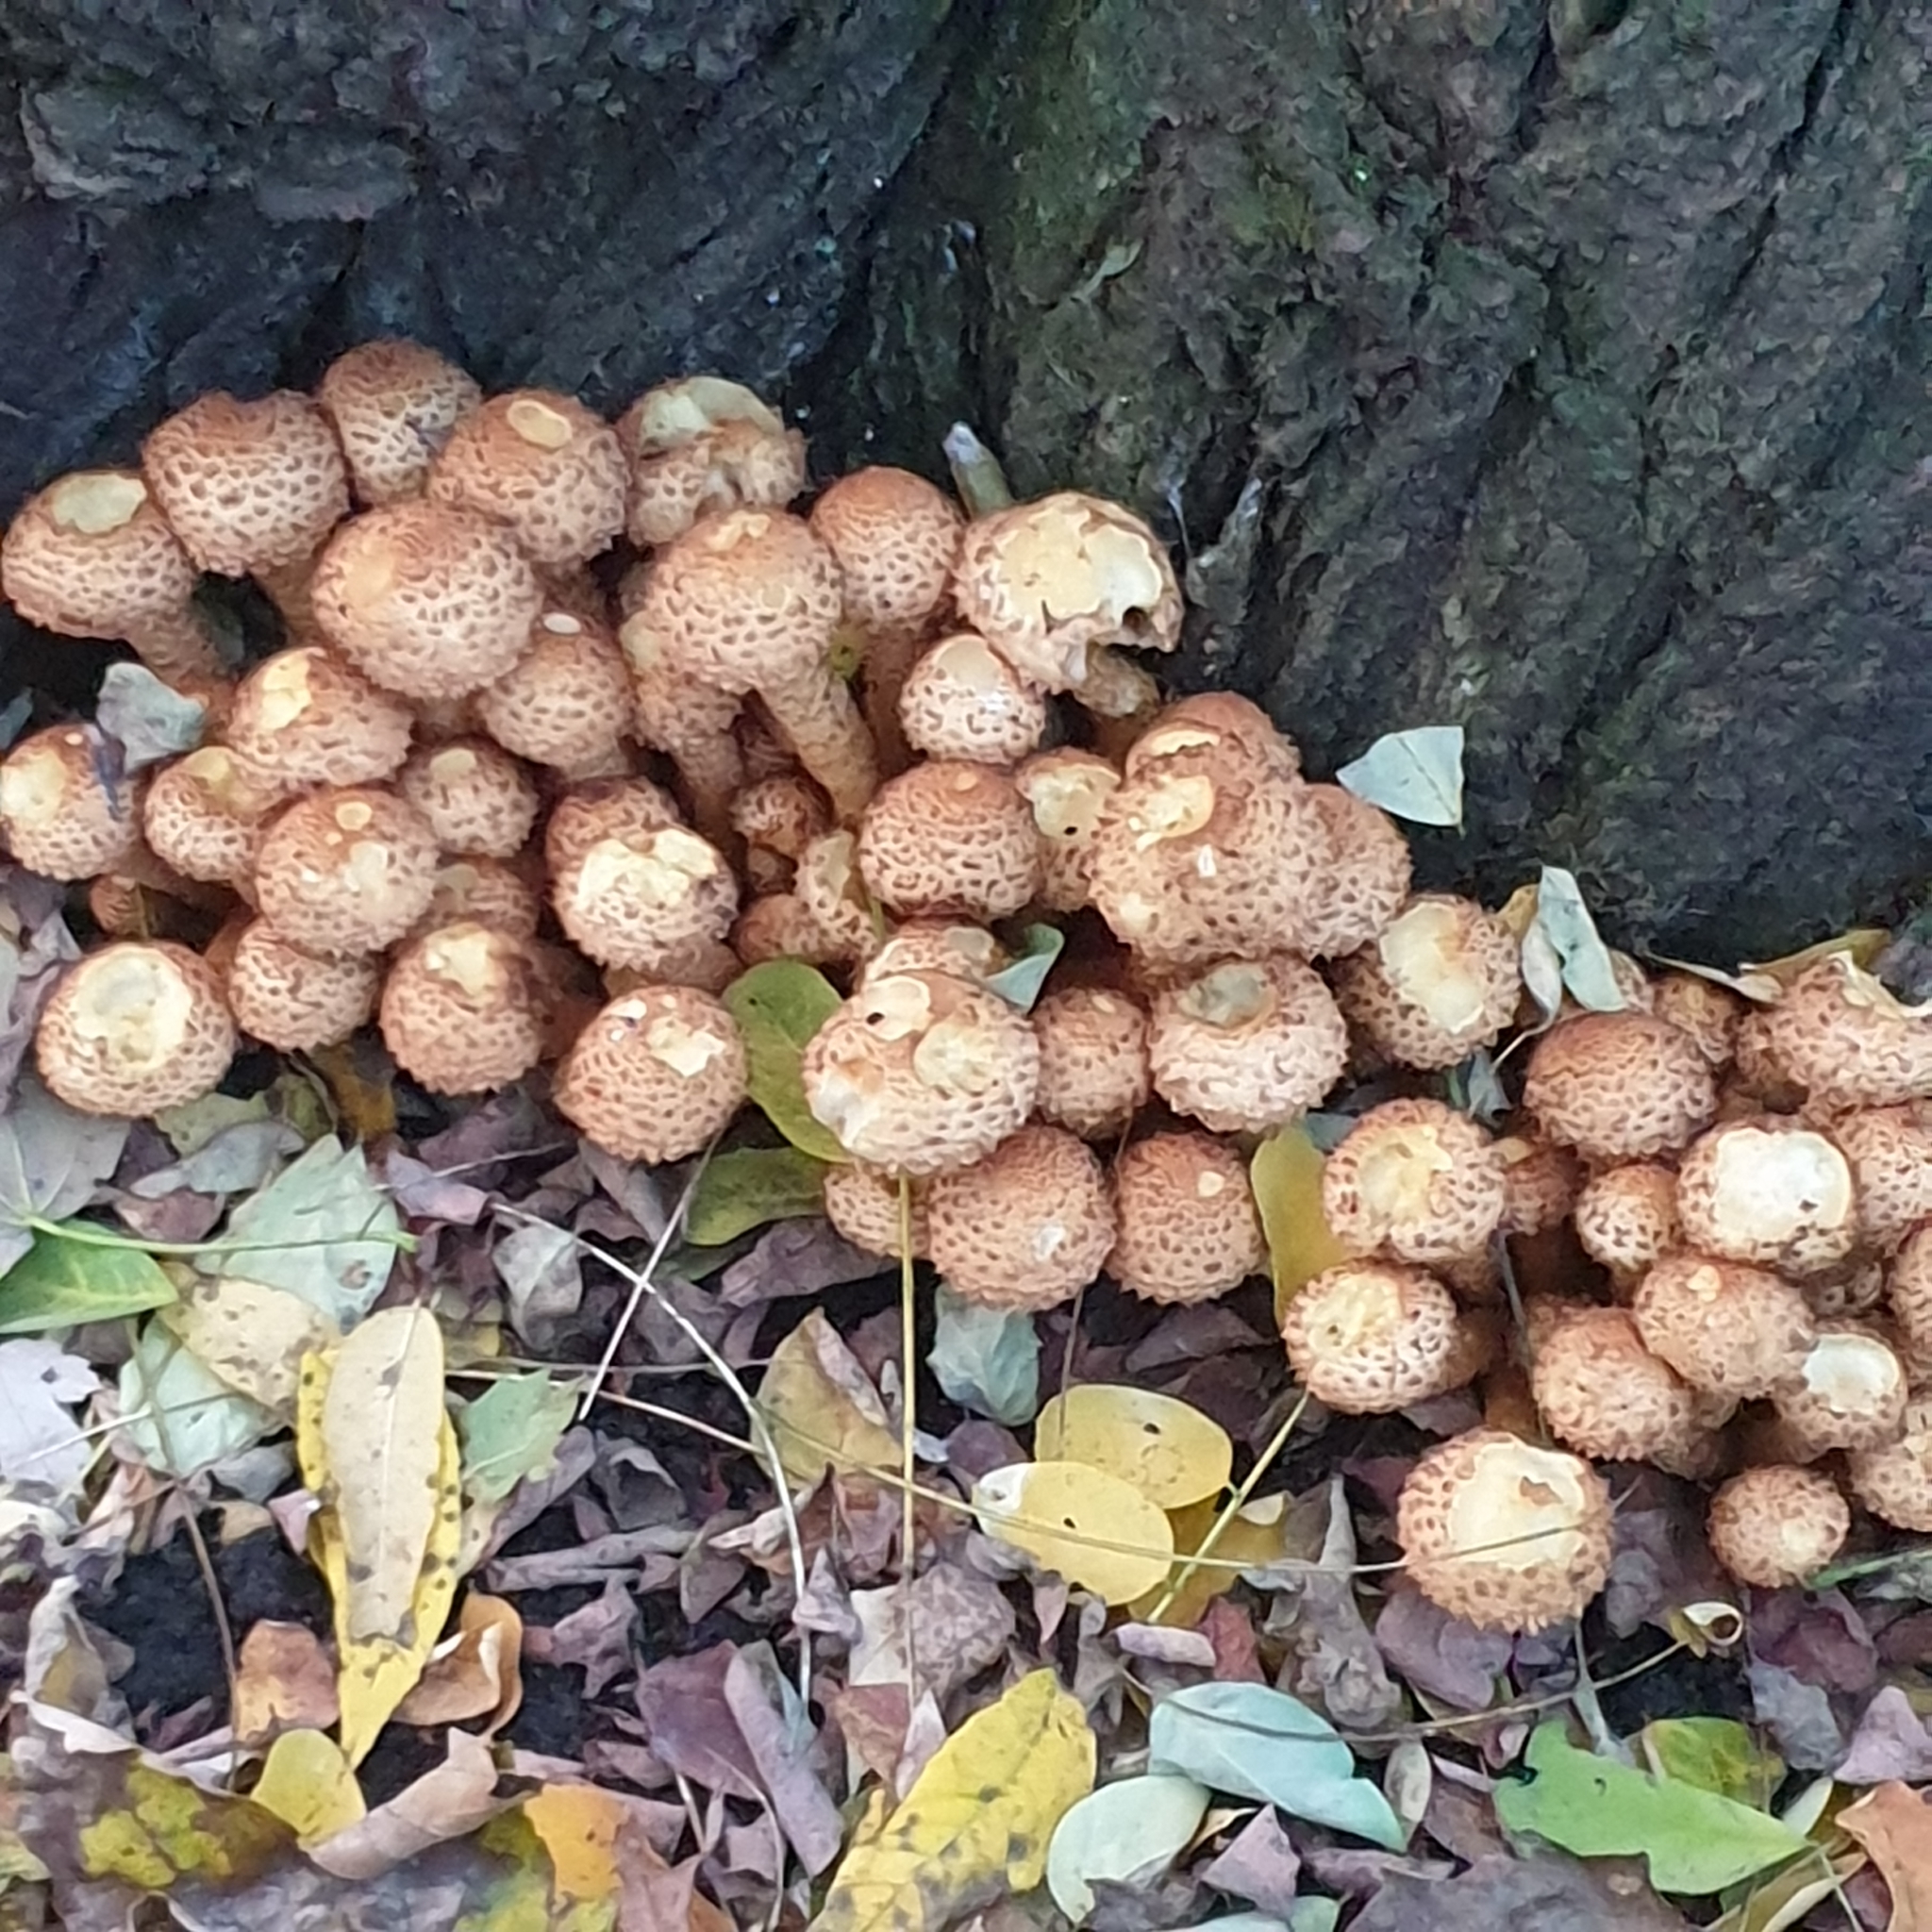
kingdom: Fungi
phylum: Basidiomycota
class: Agaricomycetes
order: Agaricales
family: Strophariaceae
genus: Pholiota
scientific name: Pholiota squarrosa
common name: Shaggy pholiota
